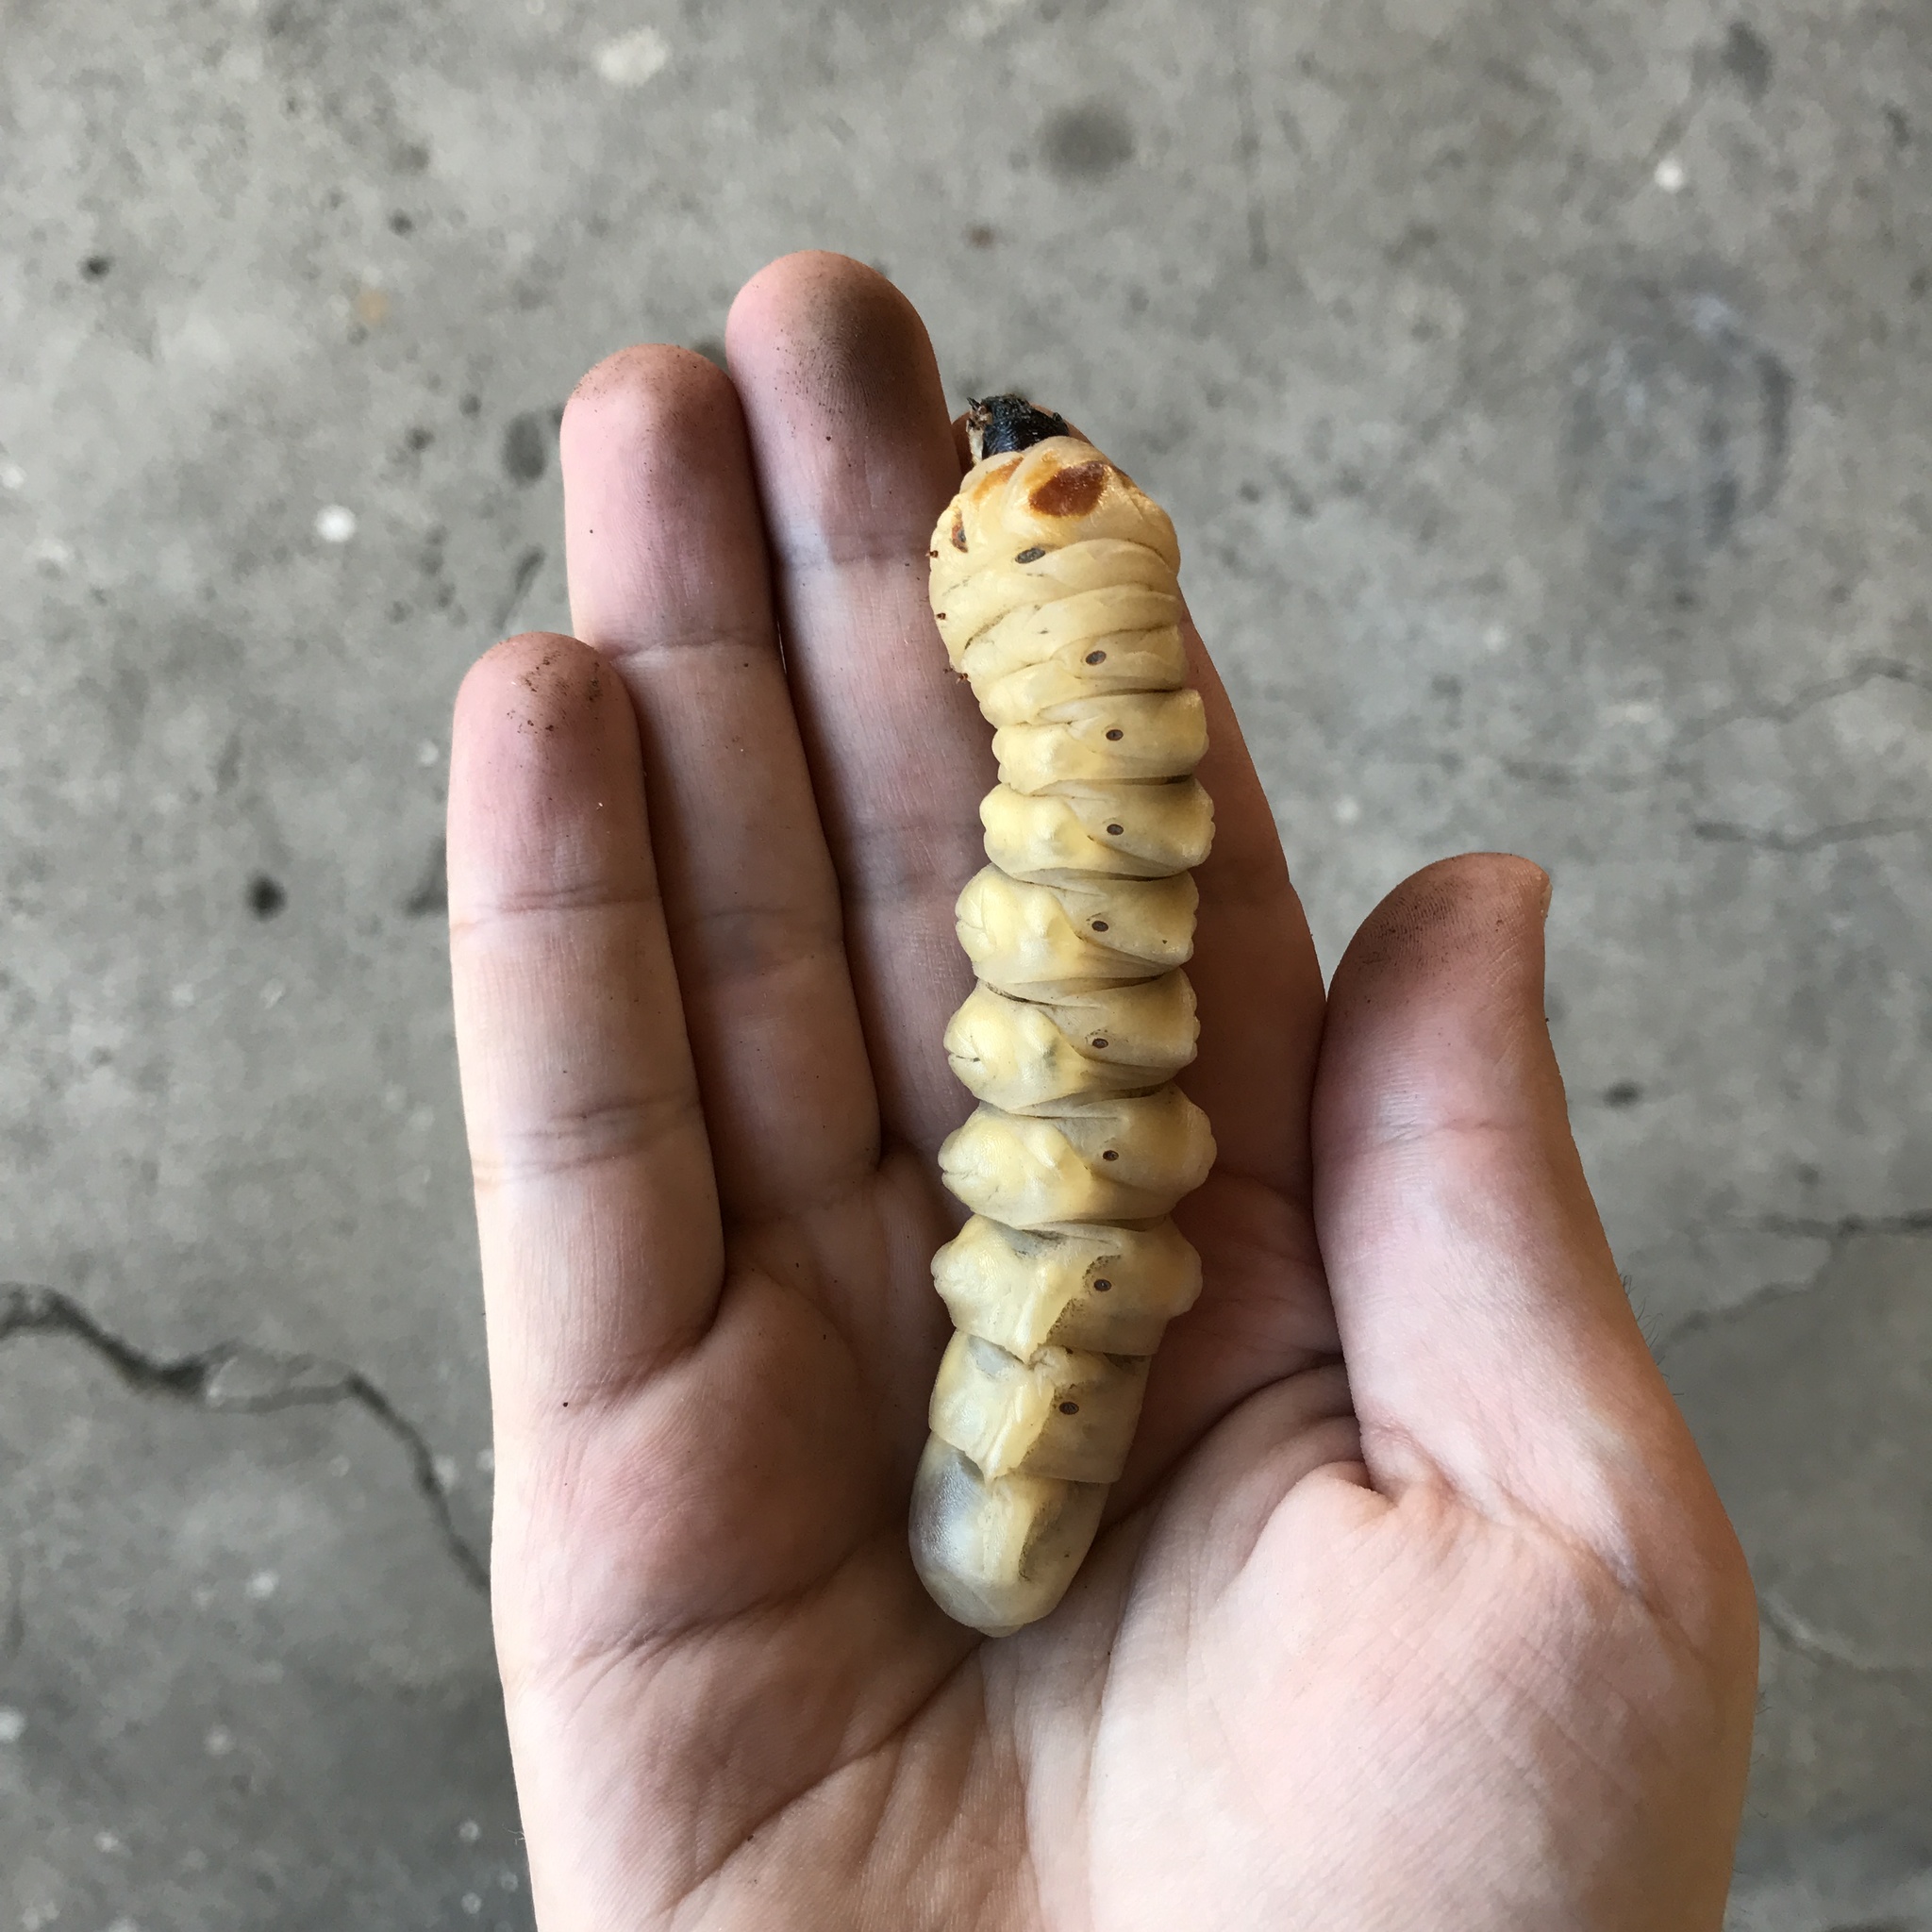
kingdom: Animalia
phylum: Arthropoda
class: Insecta
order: Coleoptera
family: Cerambycidae
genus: Acanthinodera
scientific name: Acanthinodera cumingii
